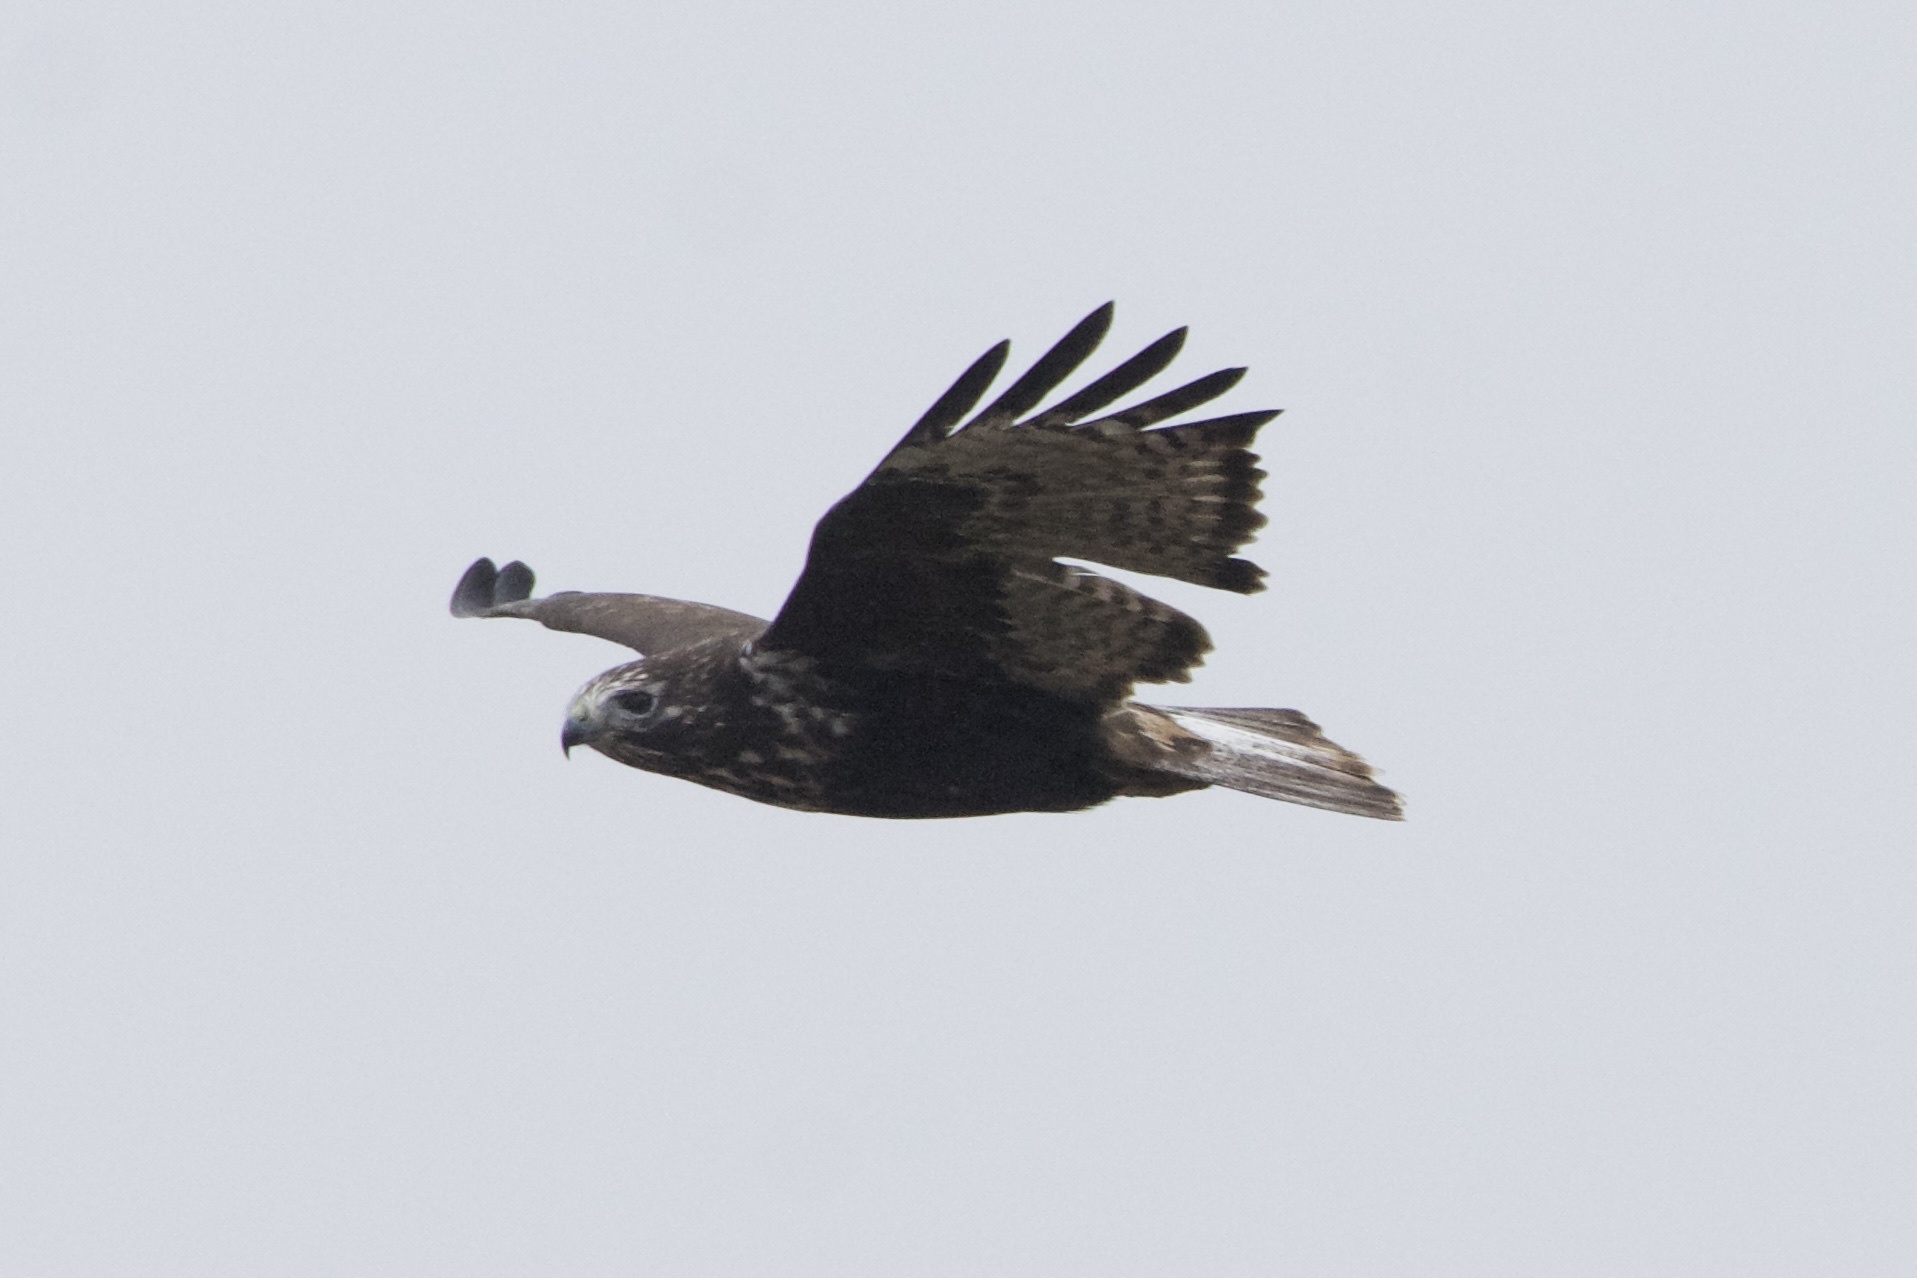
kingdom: Animalia
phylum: Chordata
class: Aves
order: Accipitriformes
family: Accipitridae
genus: Buteo
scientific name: Buteo jamaicensis
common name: Red-tailed hawk
